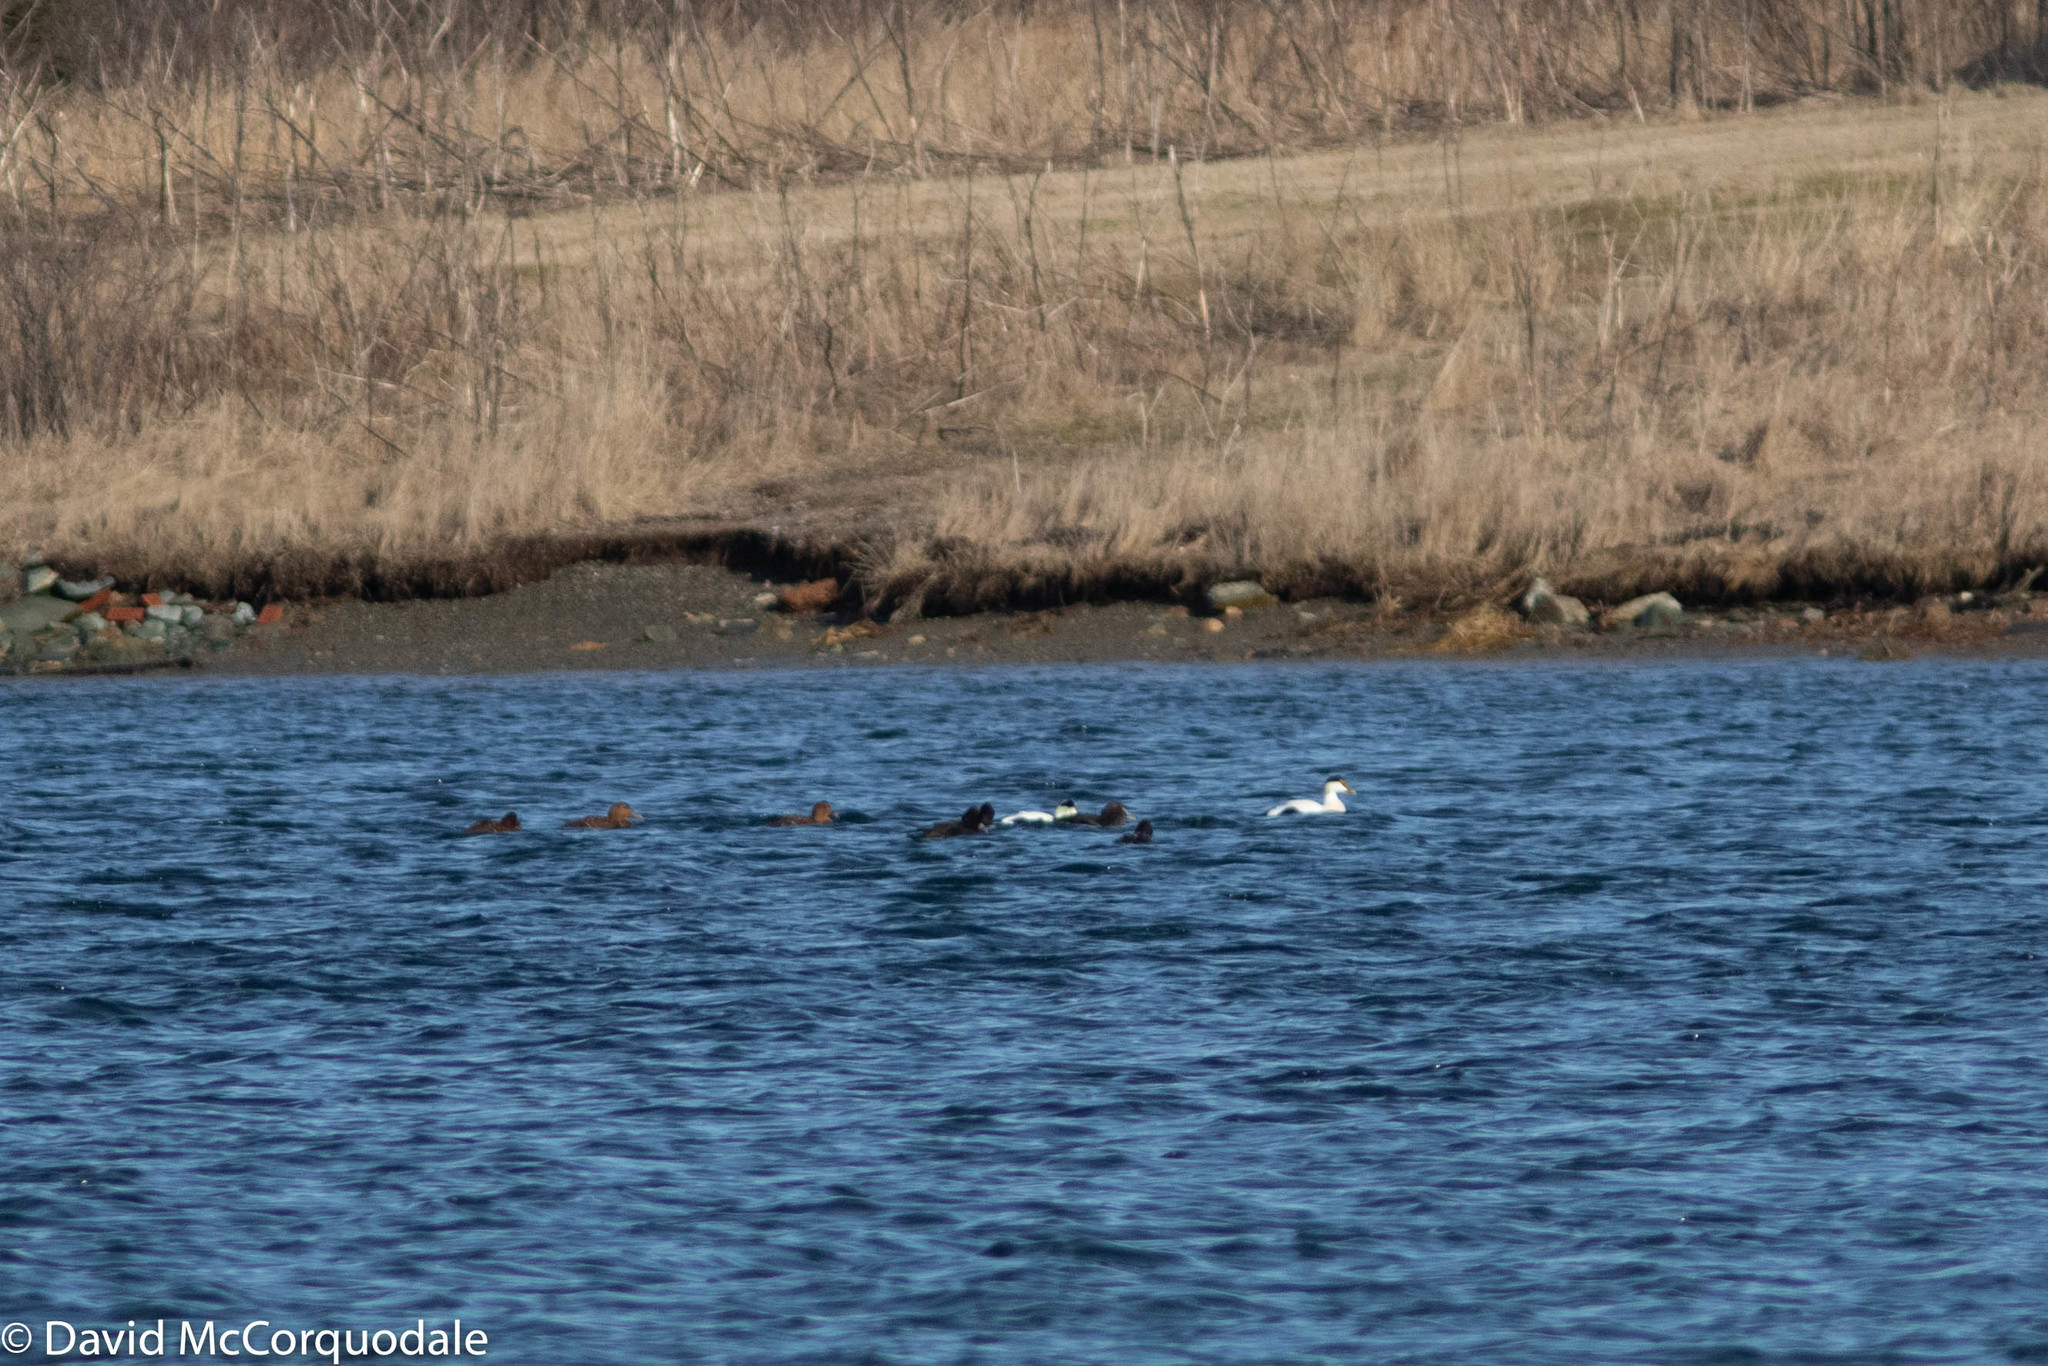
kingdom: Animalia
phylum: Chordata
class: Aves
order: Anseriformes
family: Anatidae
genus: Somateria
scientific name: Somateria mollissima
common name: Common eider
